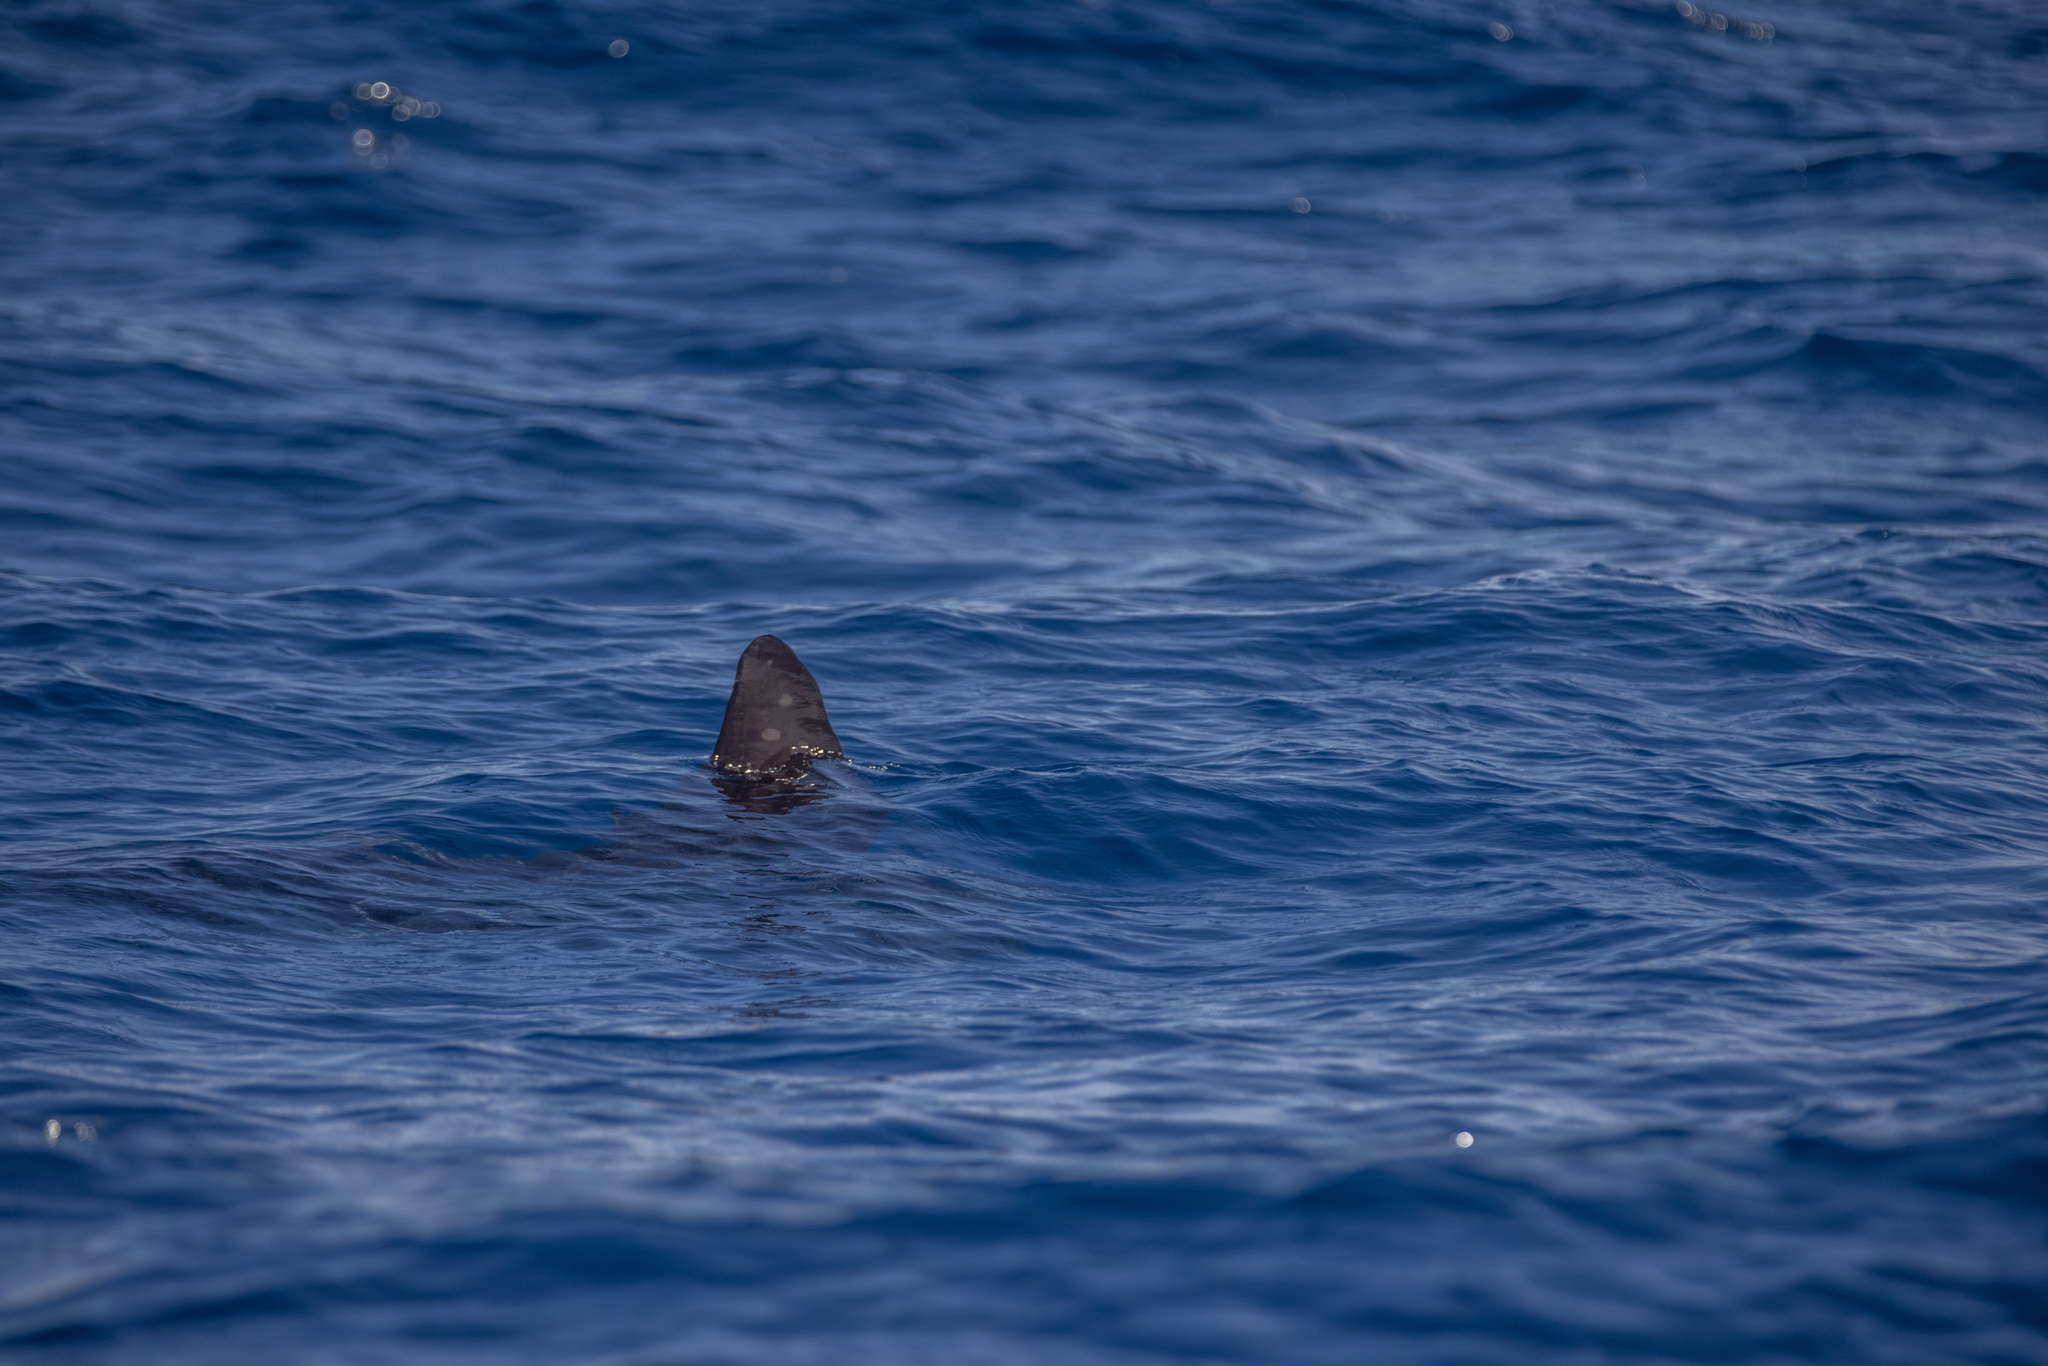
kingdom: Animalia
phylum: Chordata
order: Tetraodontiformes
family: Molidae
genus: Mola
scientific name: Mola
